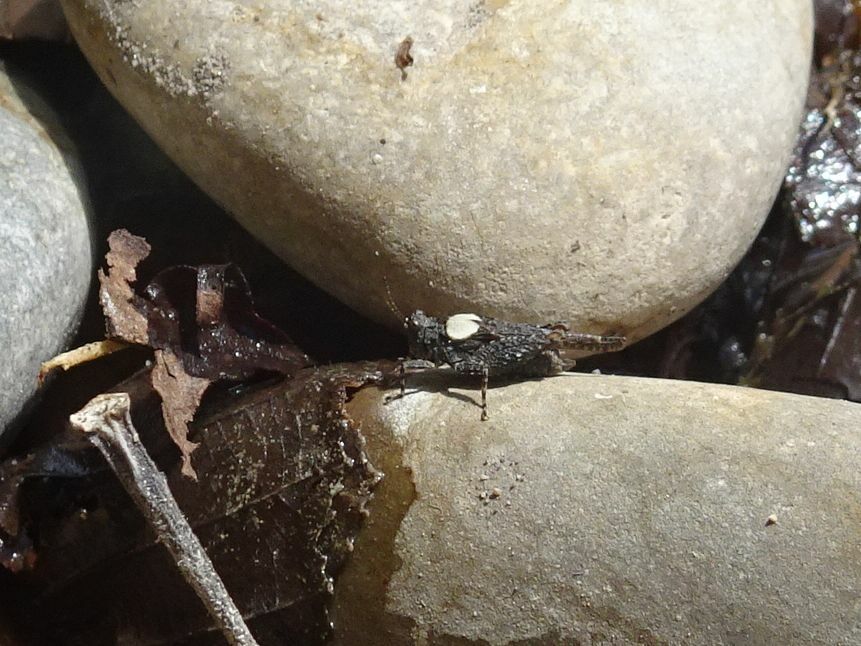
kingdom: Animalia
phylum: Arthropoda
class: Insecta
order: Orthoptera
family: Tetrigidae
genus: Paratettix
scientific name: Paratettix meridionalis
